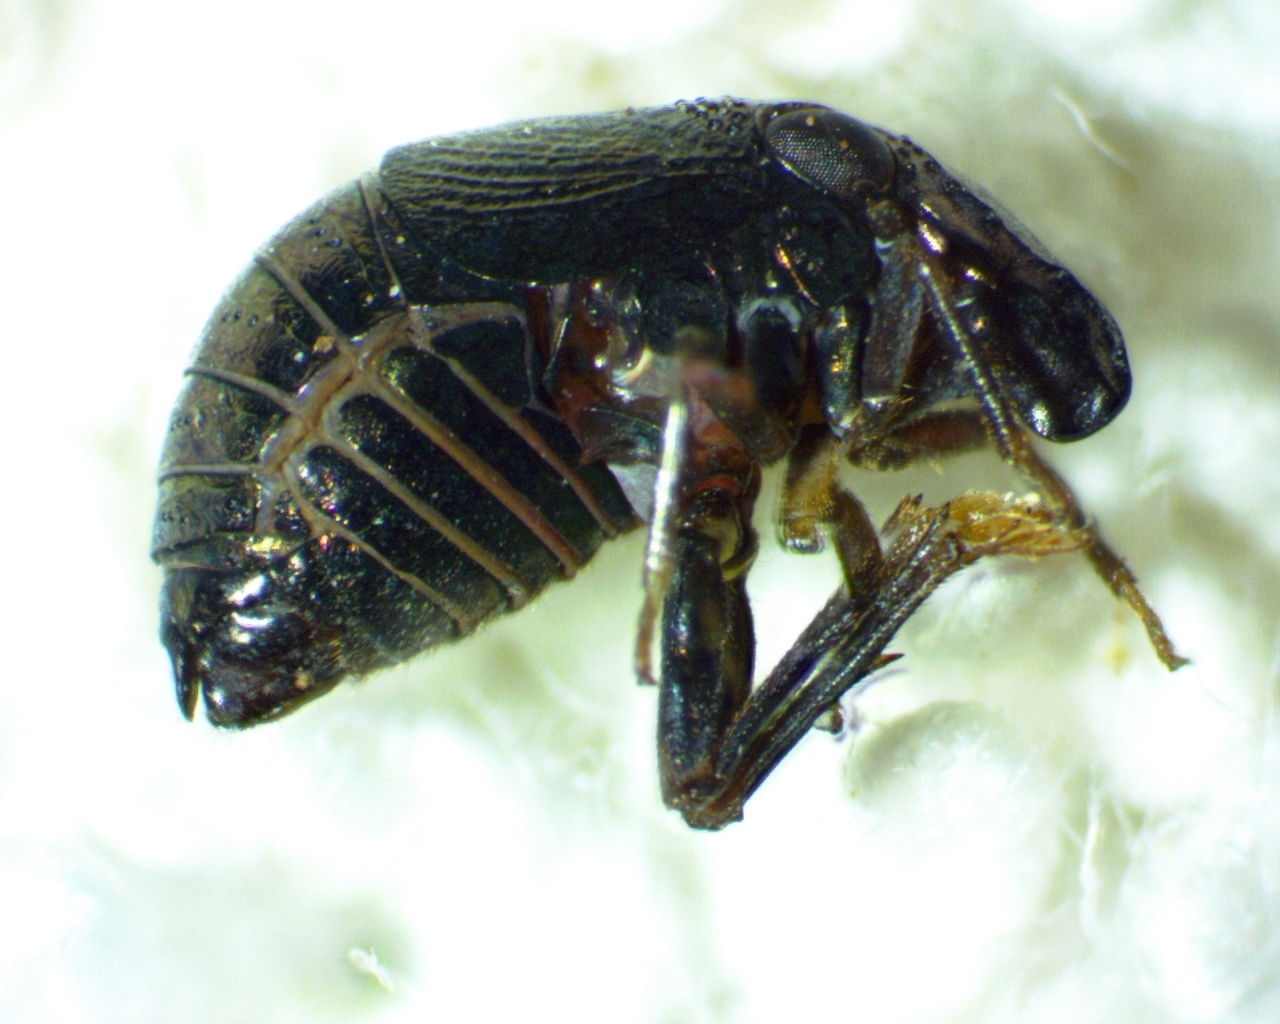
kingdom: Animalia
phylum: Arthropoda
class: Insecta
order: Hemiptera
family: Caliscelidae
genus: Bruchomorpha
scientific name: Bruchomorpha oculata
